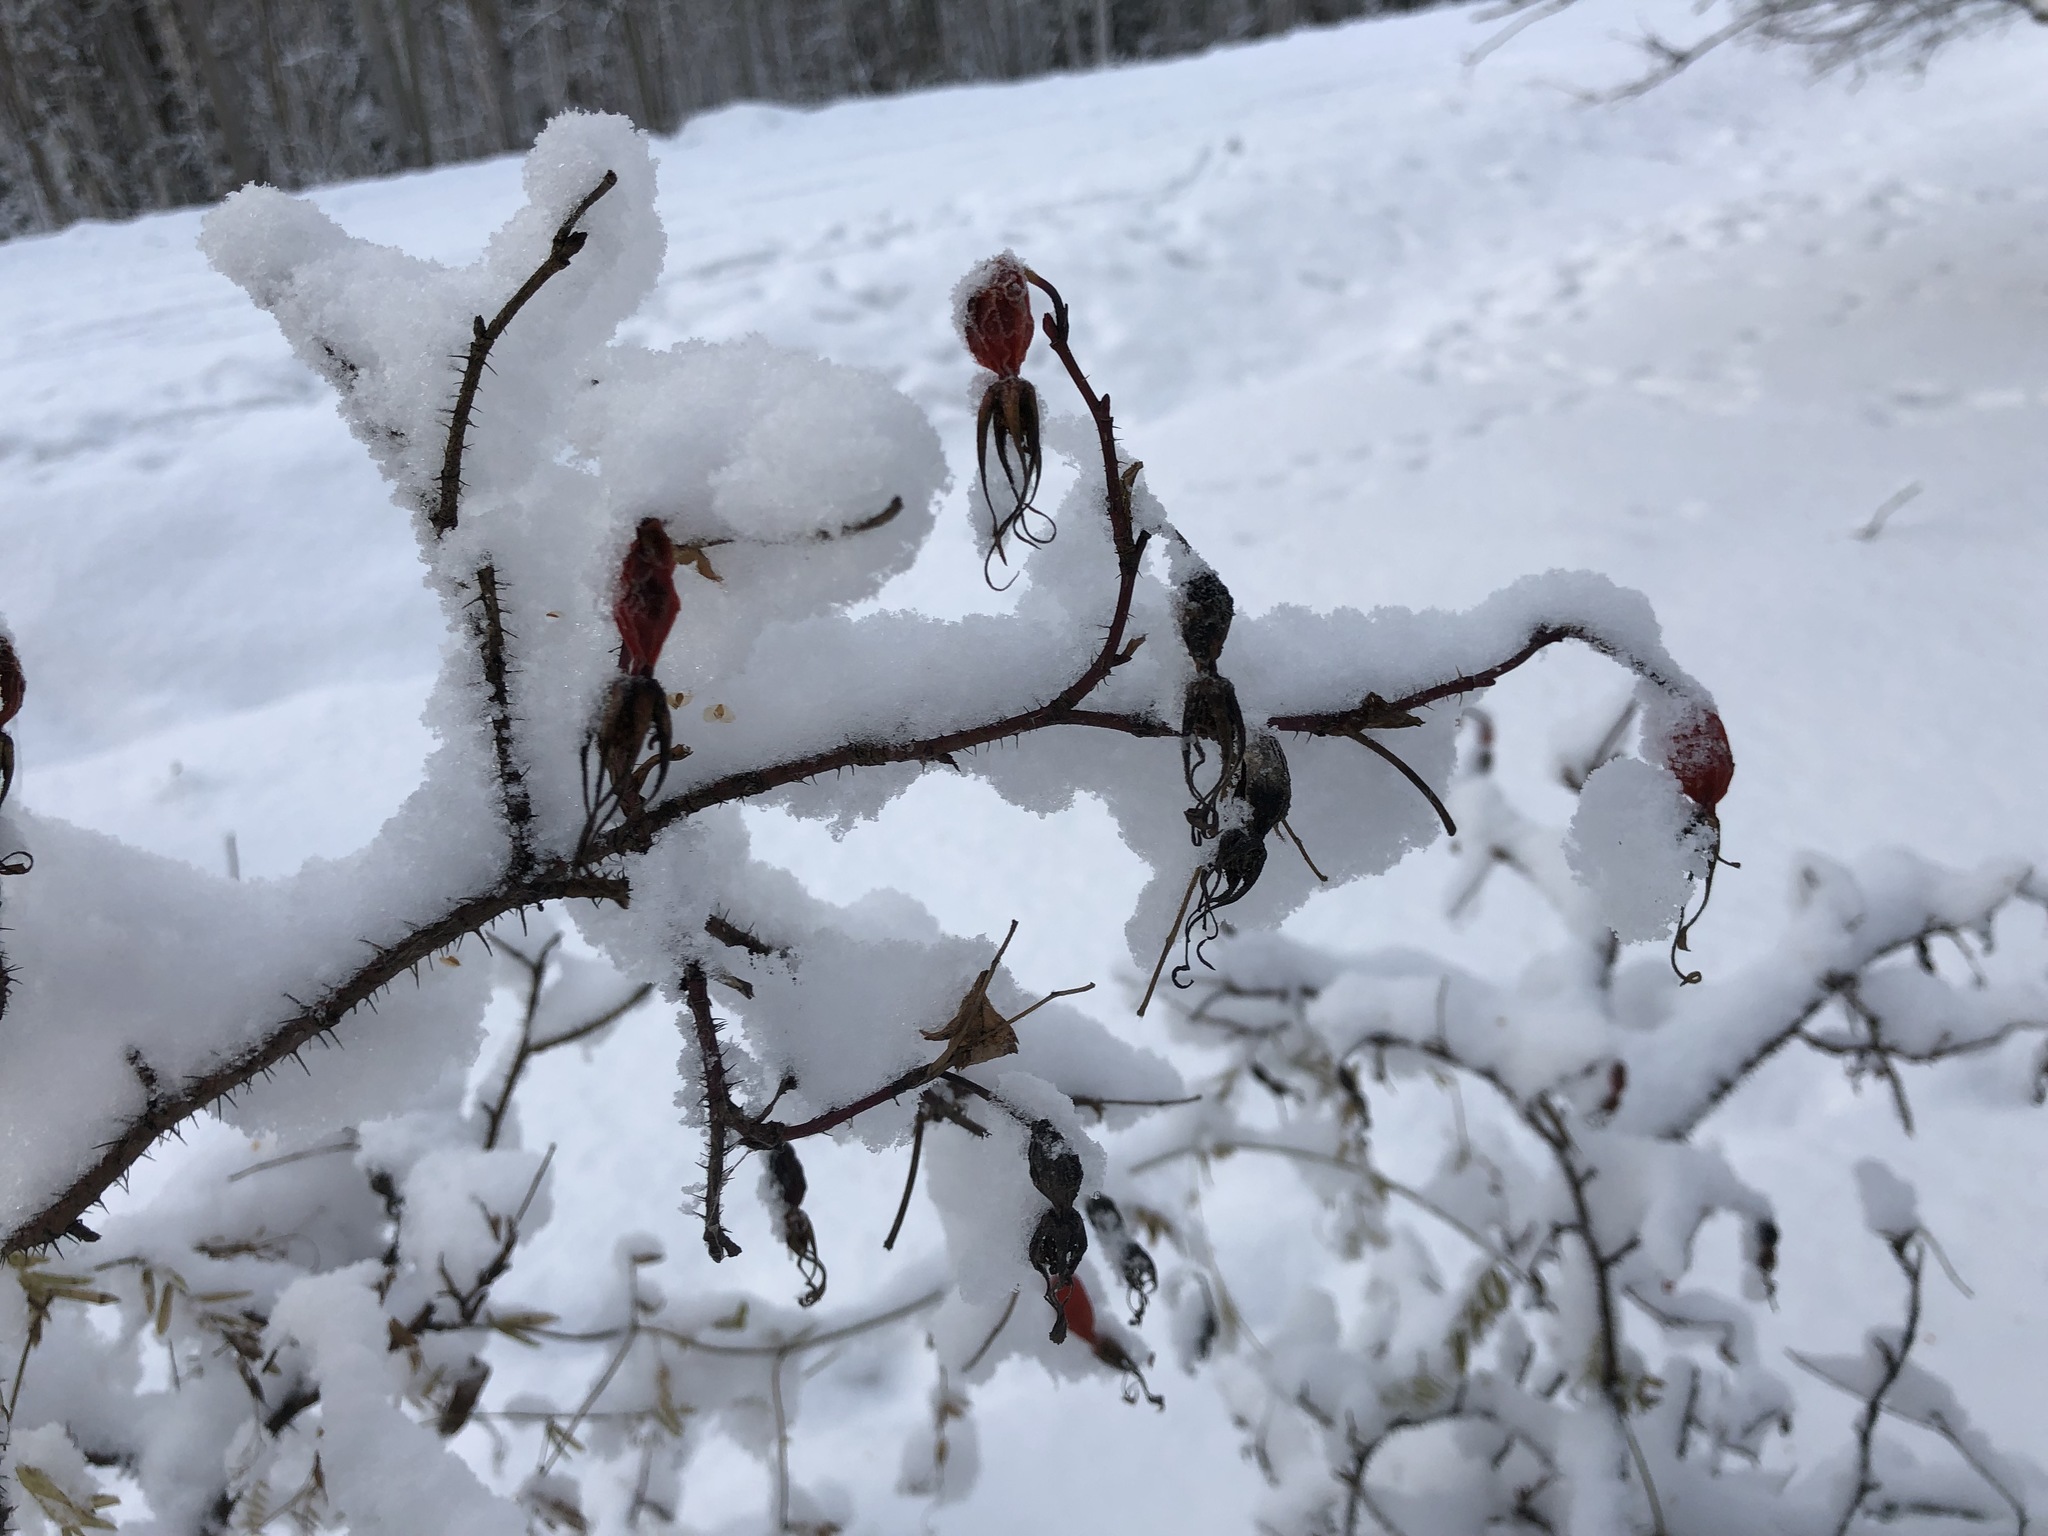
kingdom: Plantae
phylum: Tracheophyta
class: Magnoliopsida
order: Rosales
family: Rosaceae
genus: Rosa
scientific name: Rosa acicularis
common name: Prickly rose
